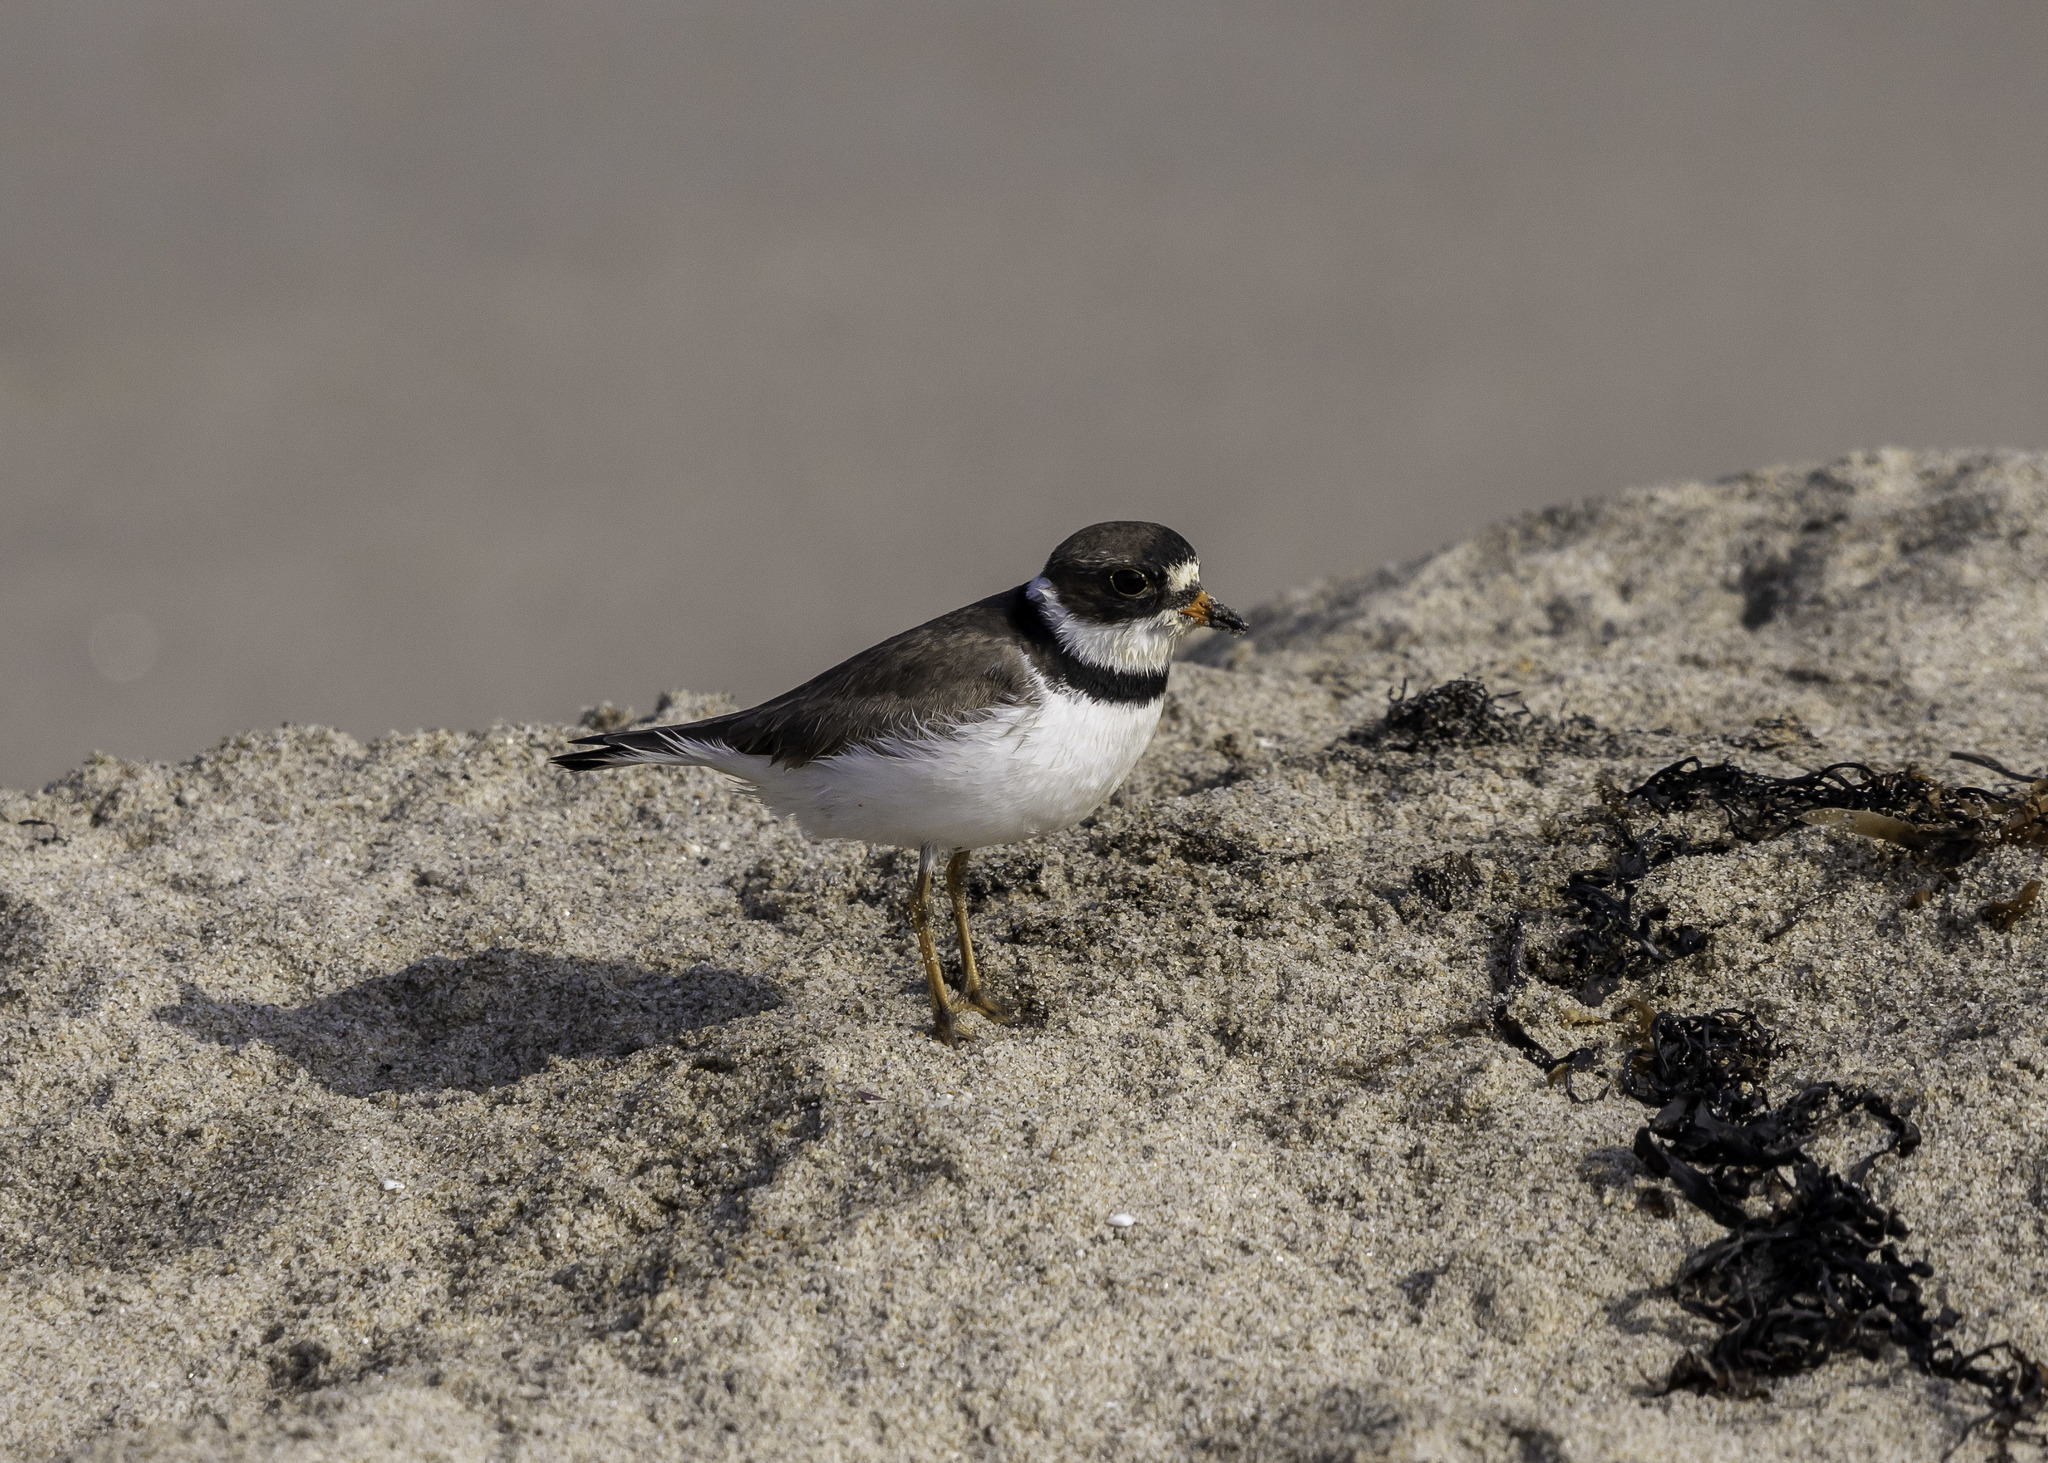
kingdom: Animalia
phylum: Chordata
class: Aves
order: Charadriiformes
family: Charadriidae
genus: Charadrius
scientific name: Charadrius semipalmatus
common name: Semipalmated plover
